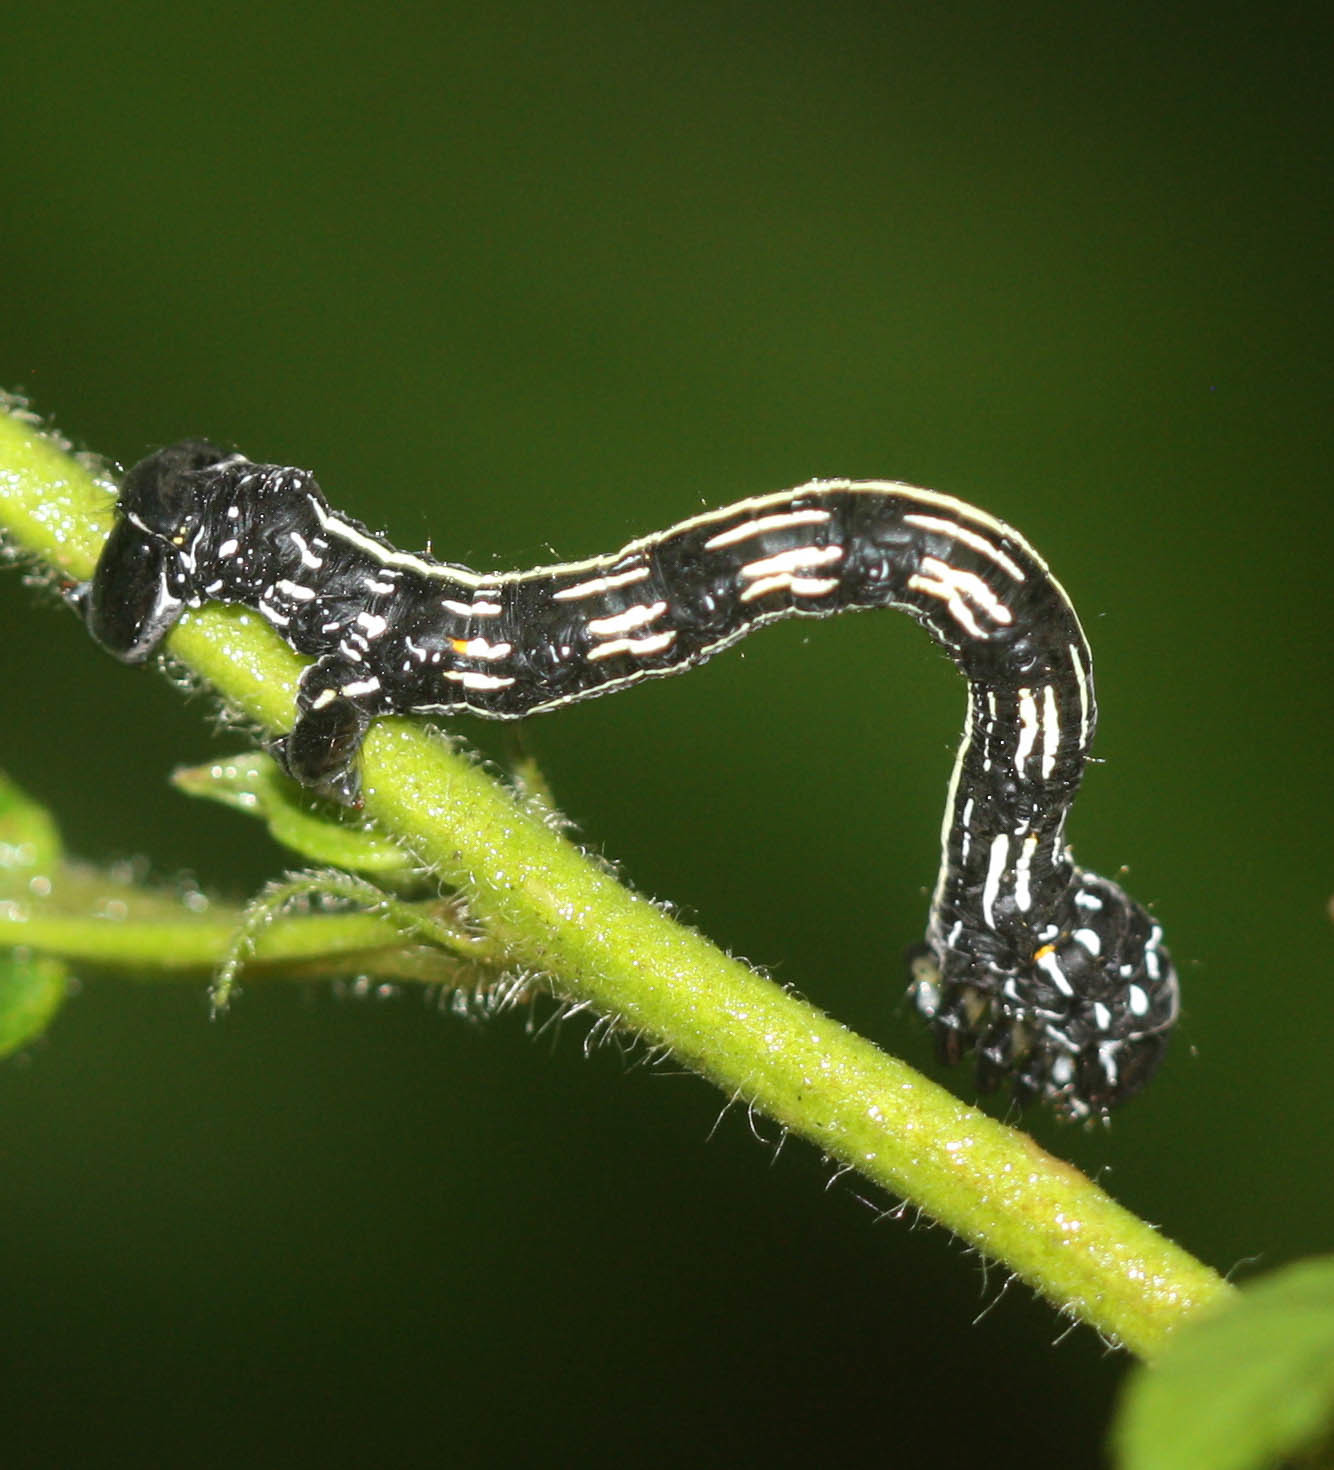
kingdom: Animalia
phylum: Arthropoda
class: Insecta
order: Lepidoptera
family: Geometridae
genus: Acronyctodes
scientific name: Acronyctodes mexicanaria
